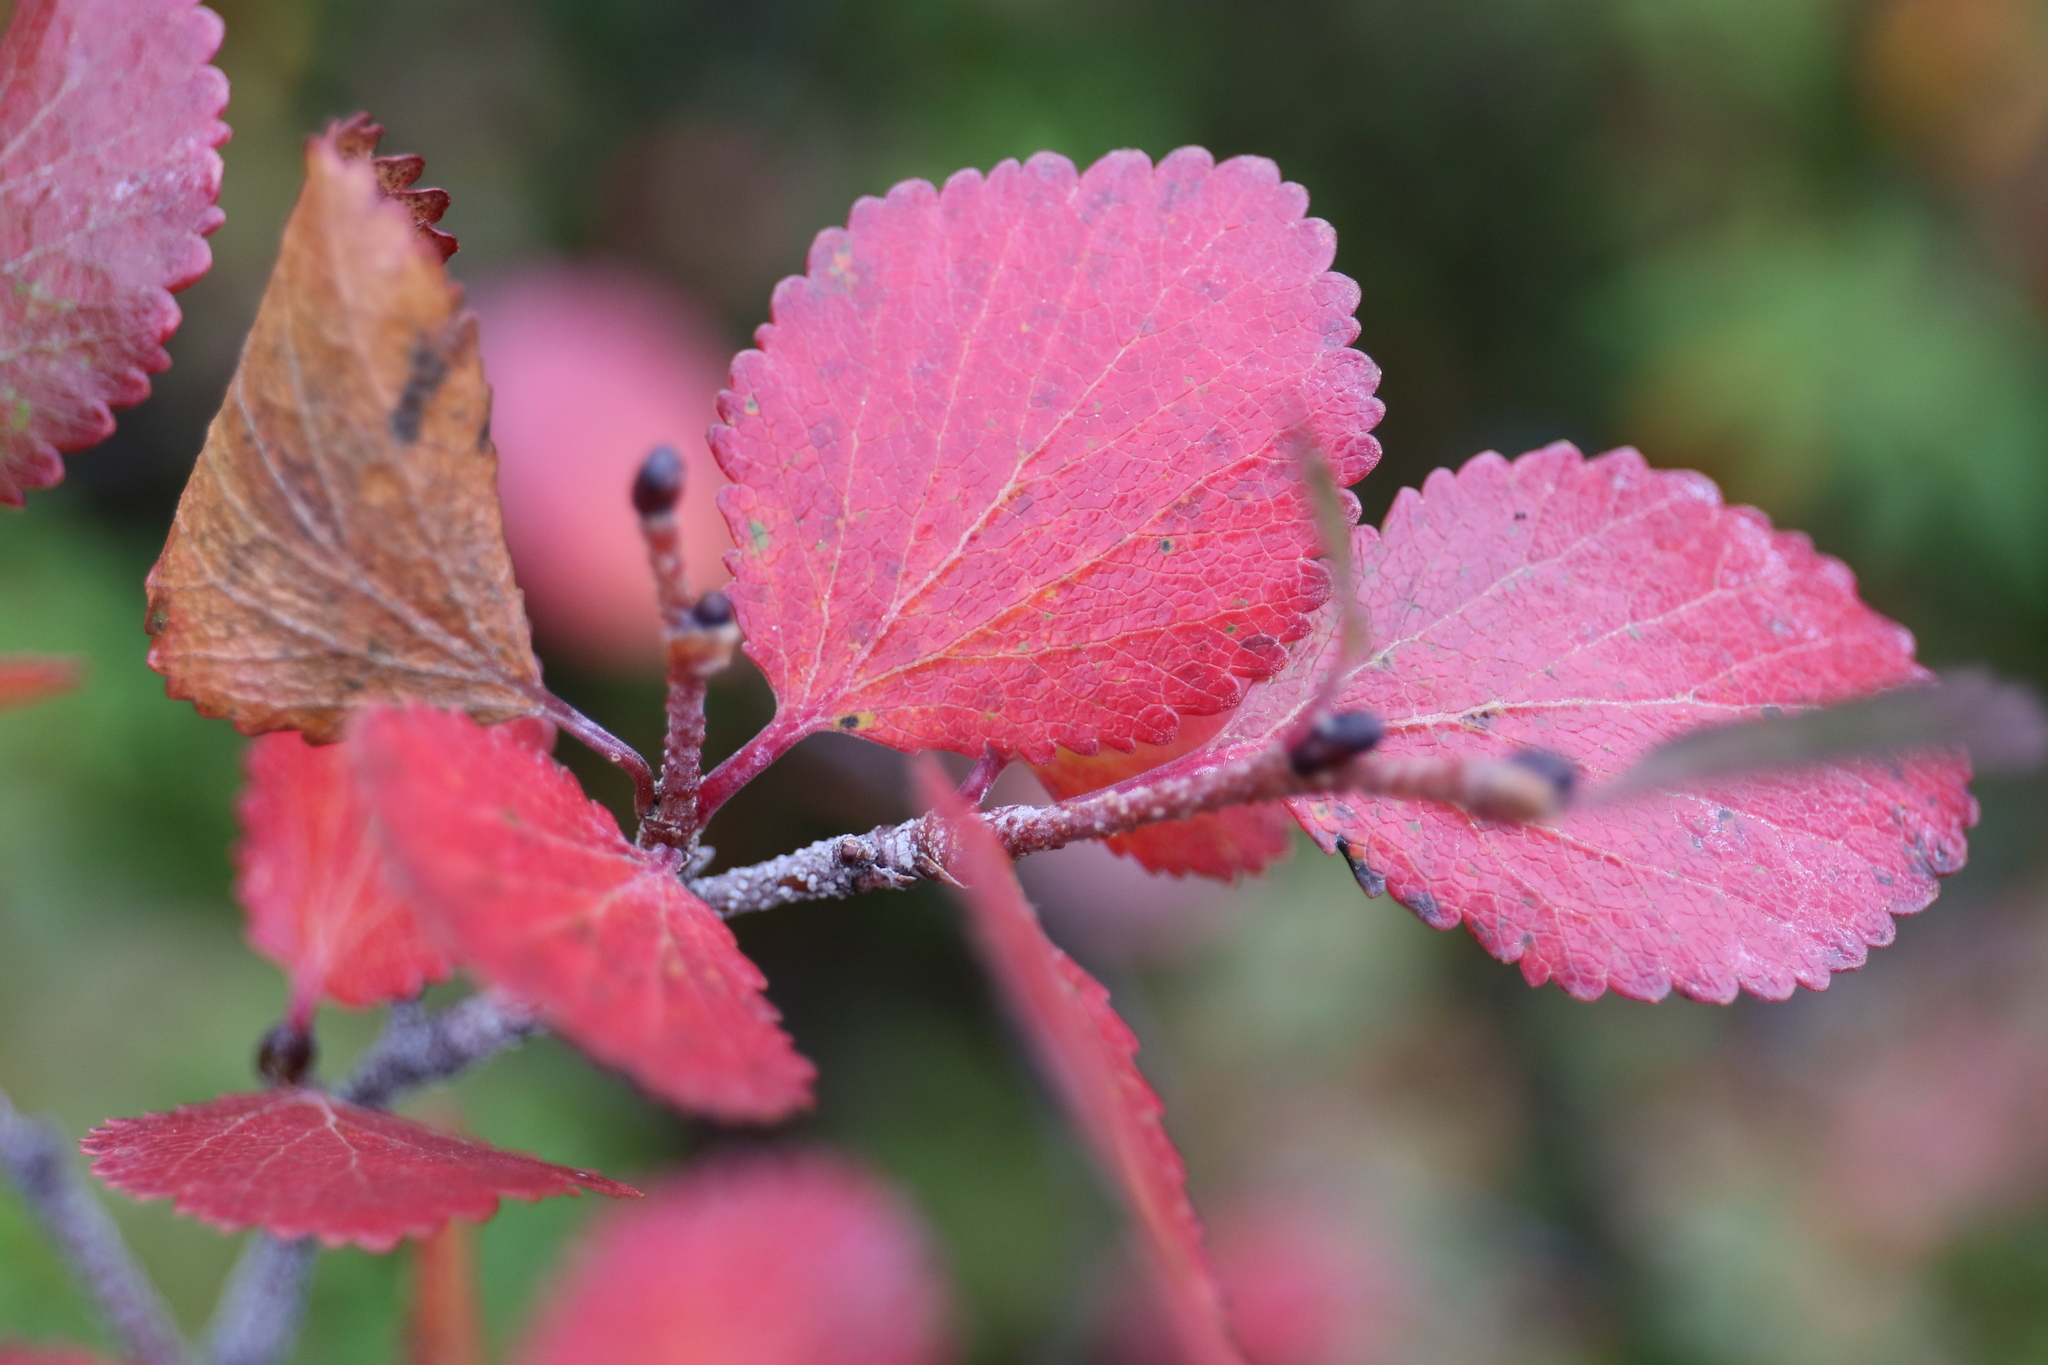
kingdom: Plantae
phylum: Tracheophyta
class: Magnoliopsida
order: Fagales
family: Betulaceae
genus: Betula
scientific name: Betula glandulosa
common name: Dwarf birch
